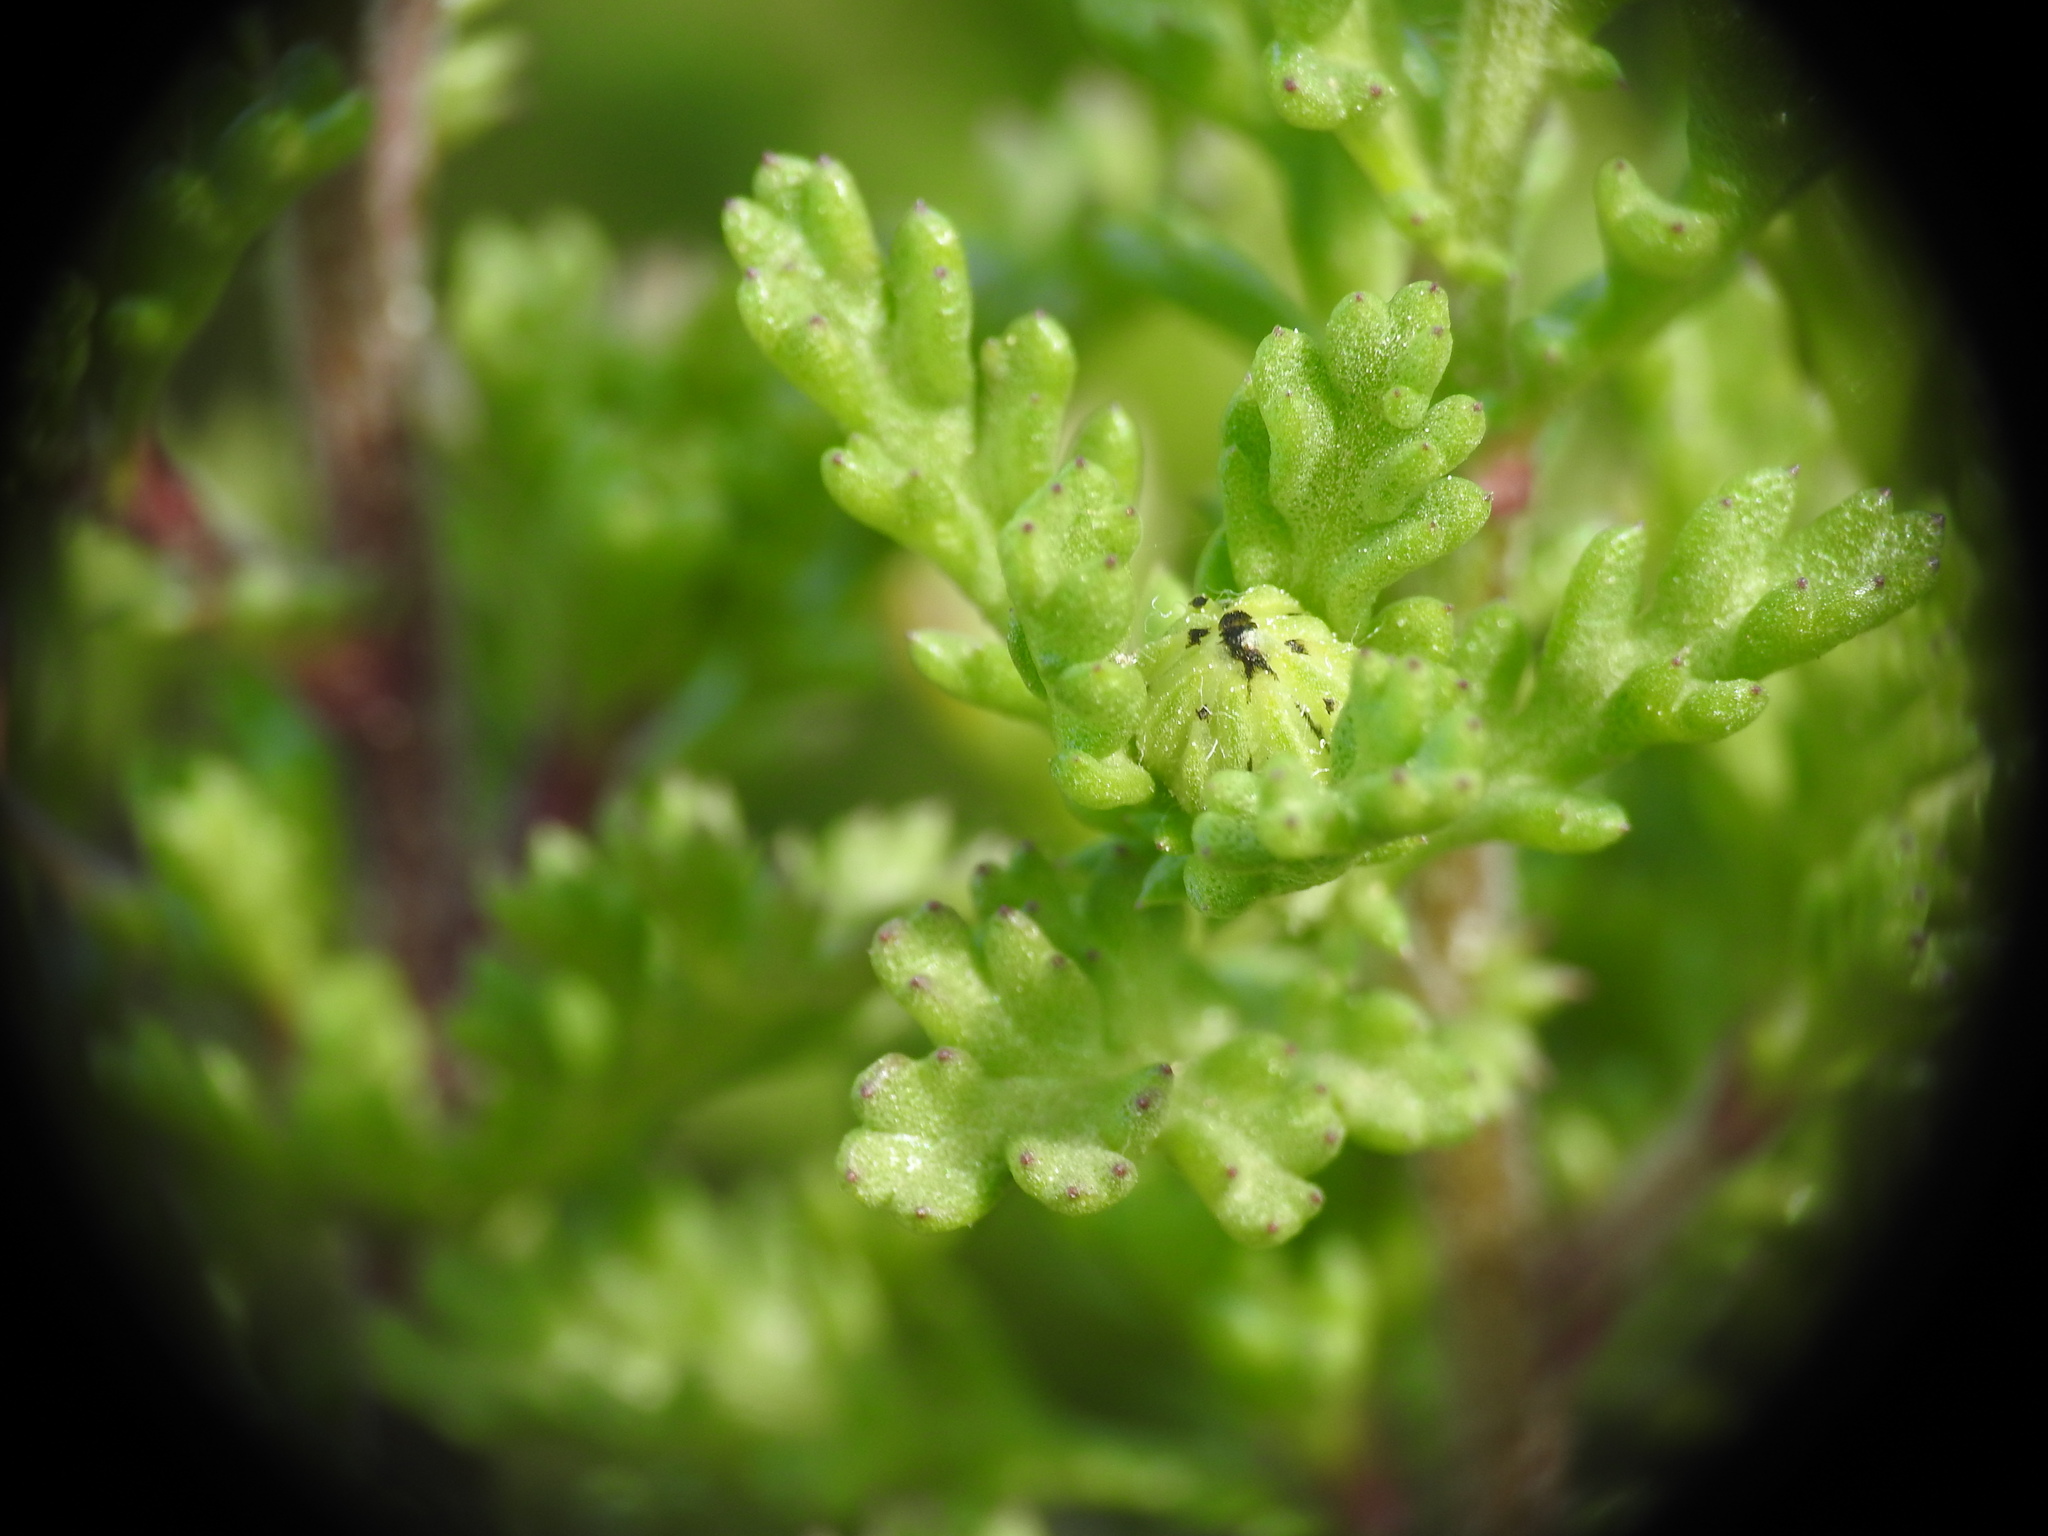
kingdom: Plantae
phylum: Tracheophyta
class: Magnoliopsida
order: Asterales
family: Asteraceae
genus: Anthemis
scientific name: Anthemis maritima
